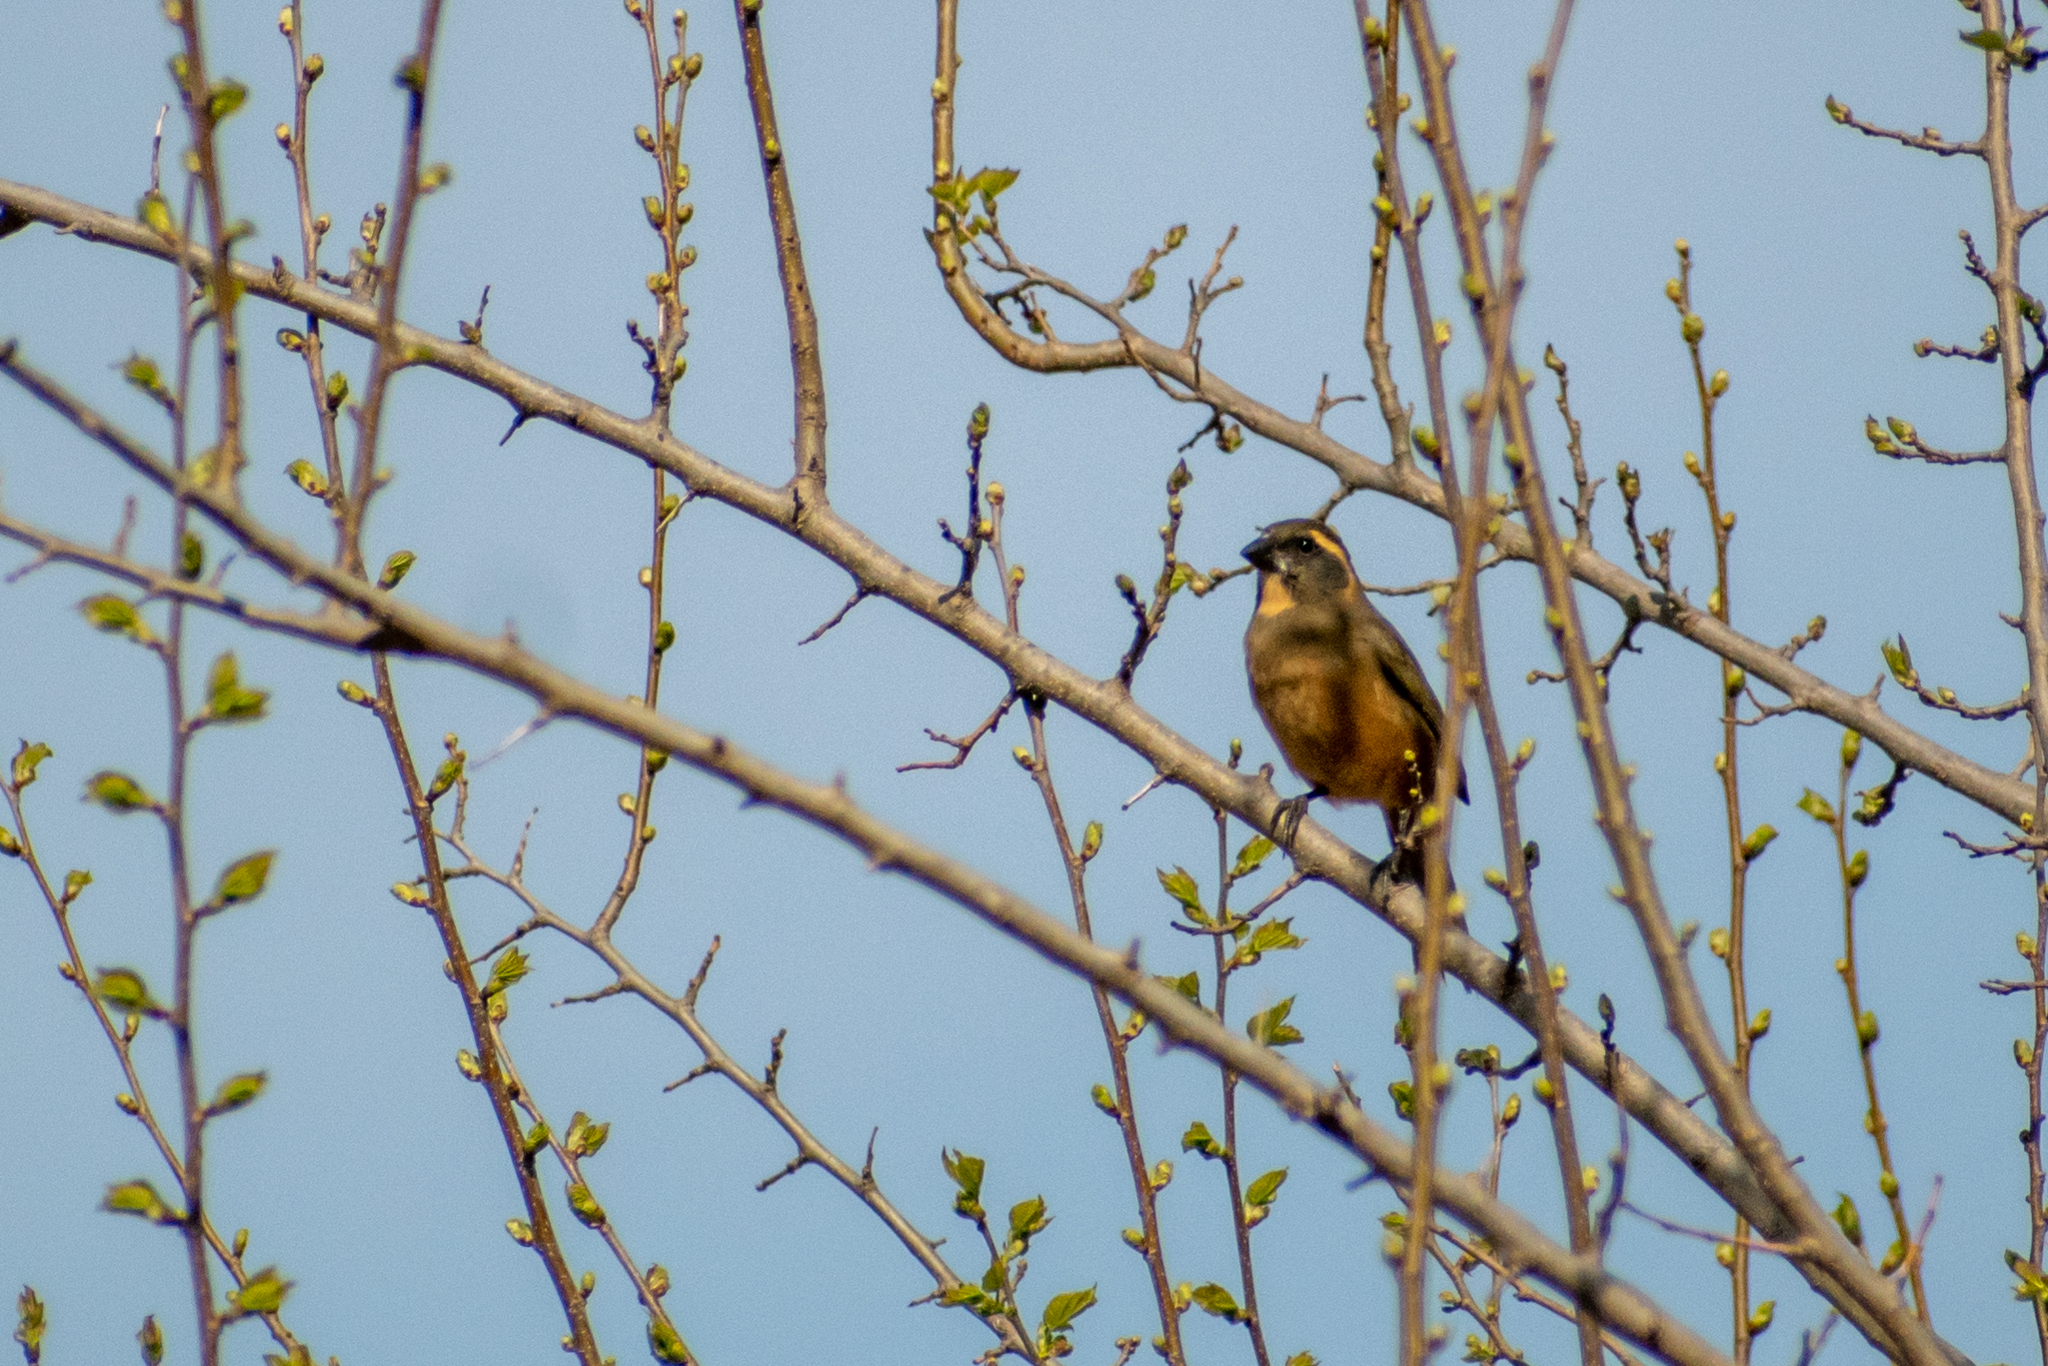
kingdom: Animalia
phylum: Chordata
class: Aves
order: Passeriformes
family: Thraupidae
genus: Saltator
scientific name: Saltator aurantiirostris
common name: Golden-billed saltator
